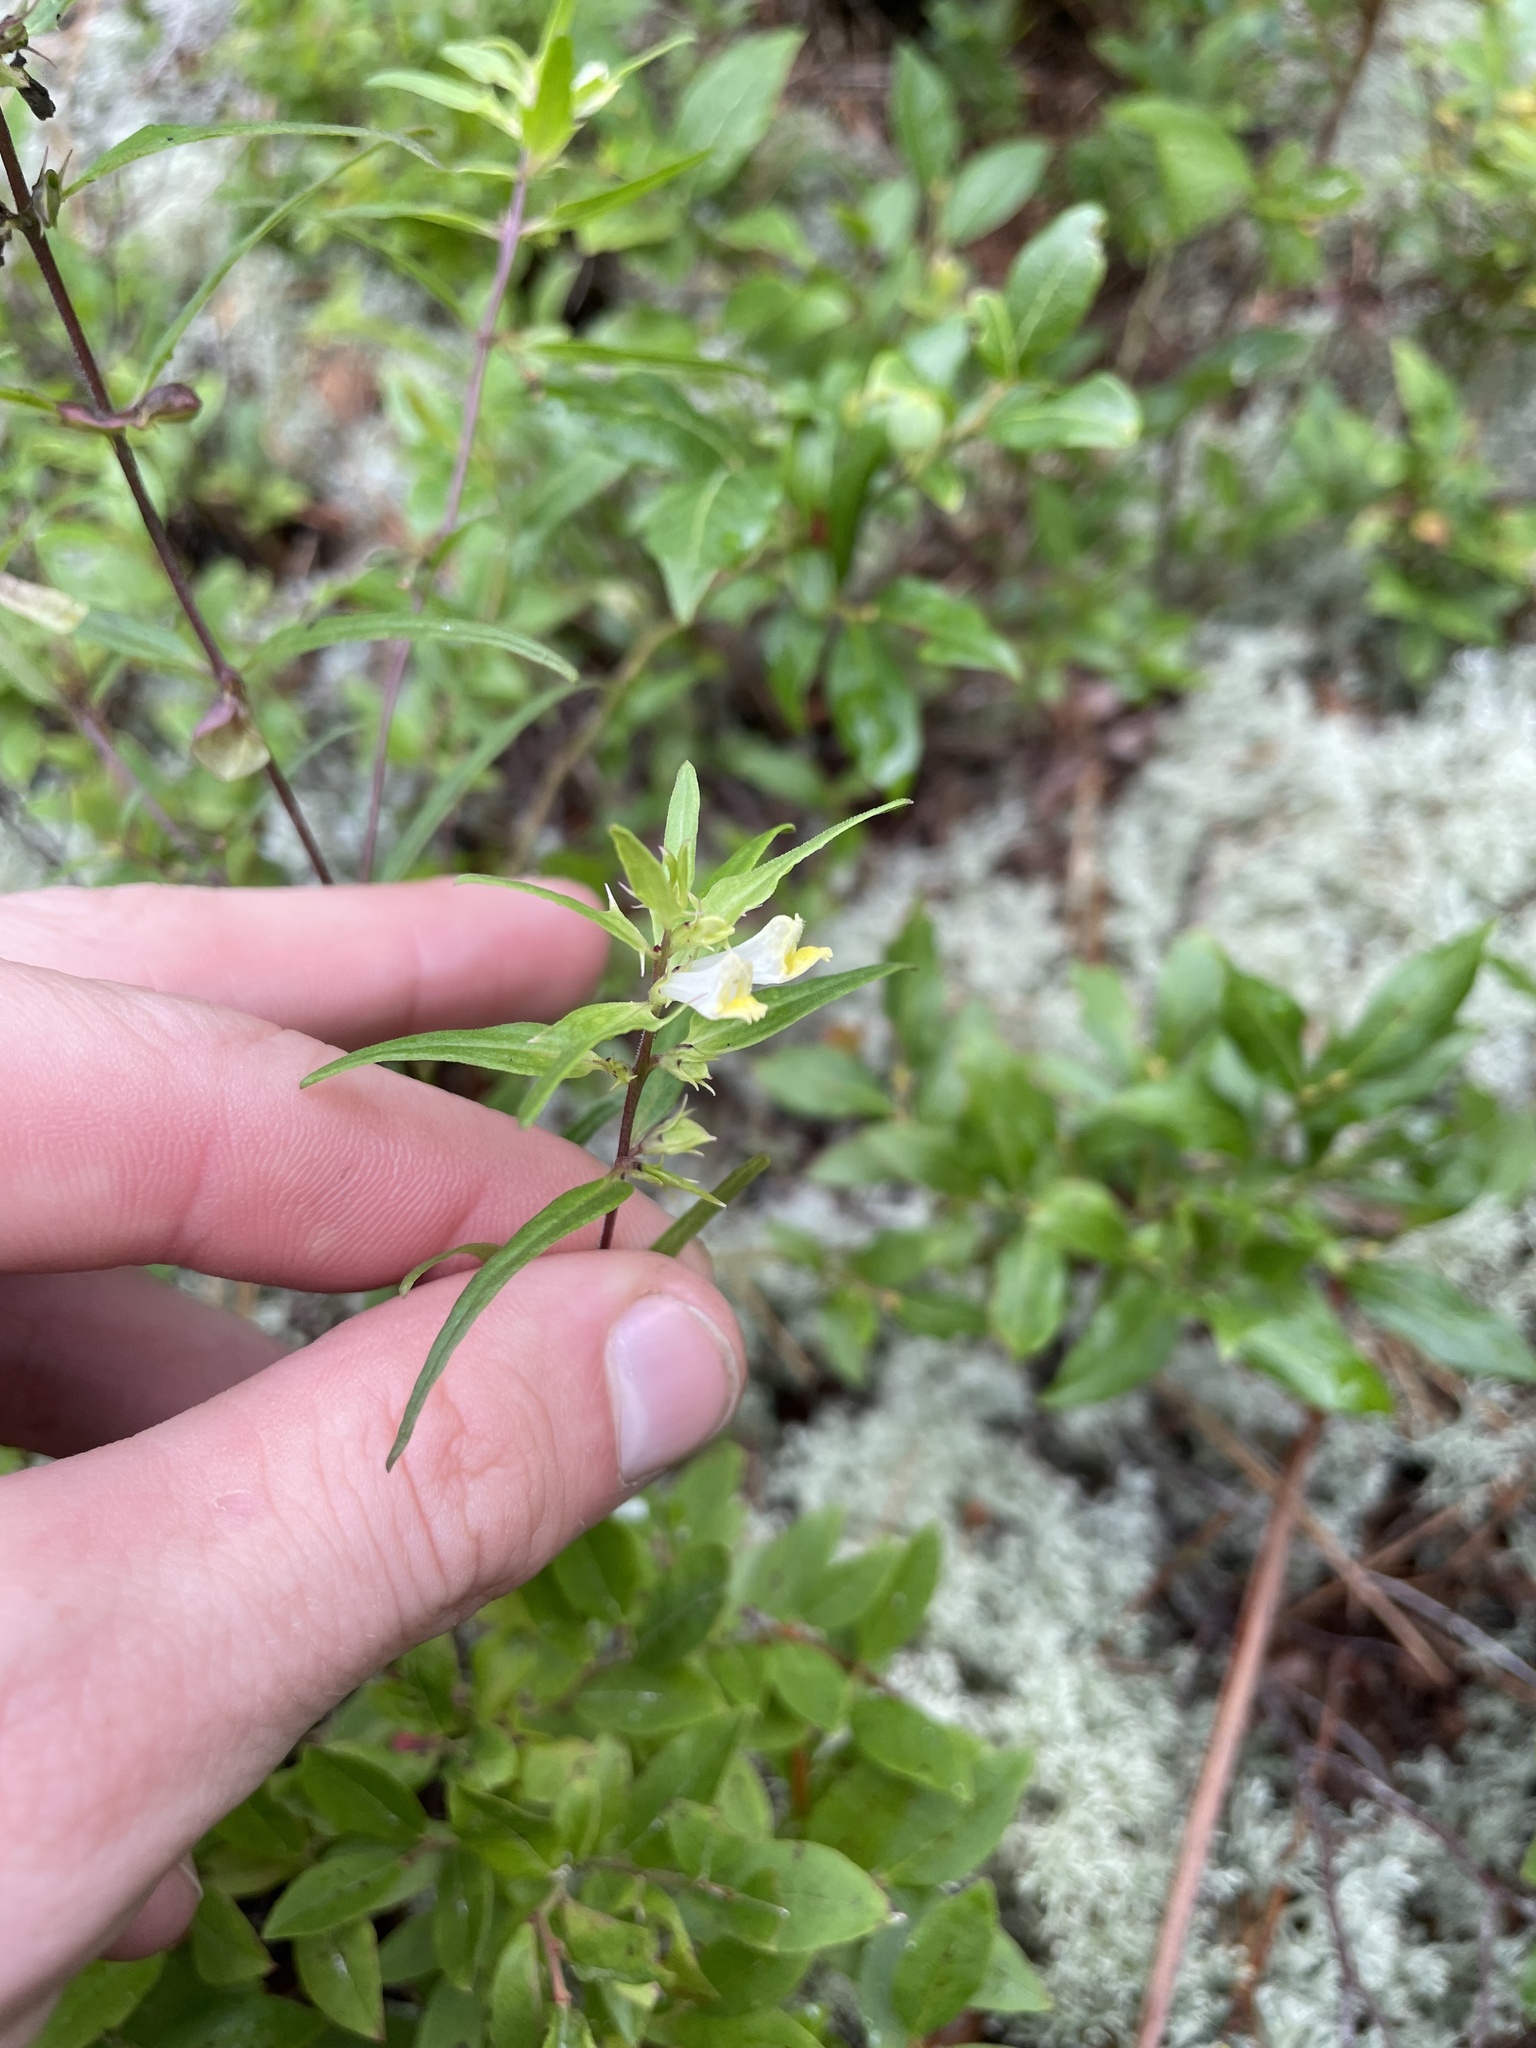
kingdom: Plantae
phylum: Tracheophyta
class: Magnoliopsida
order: Lamiales
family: Orobanchaceae
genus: Melampyrum
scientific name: Melampyrum lineare
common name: American cow-wheat
